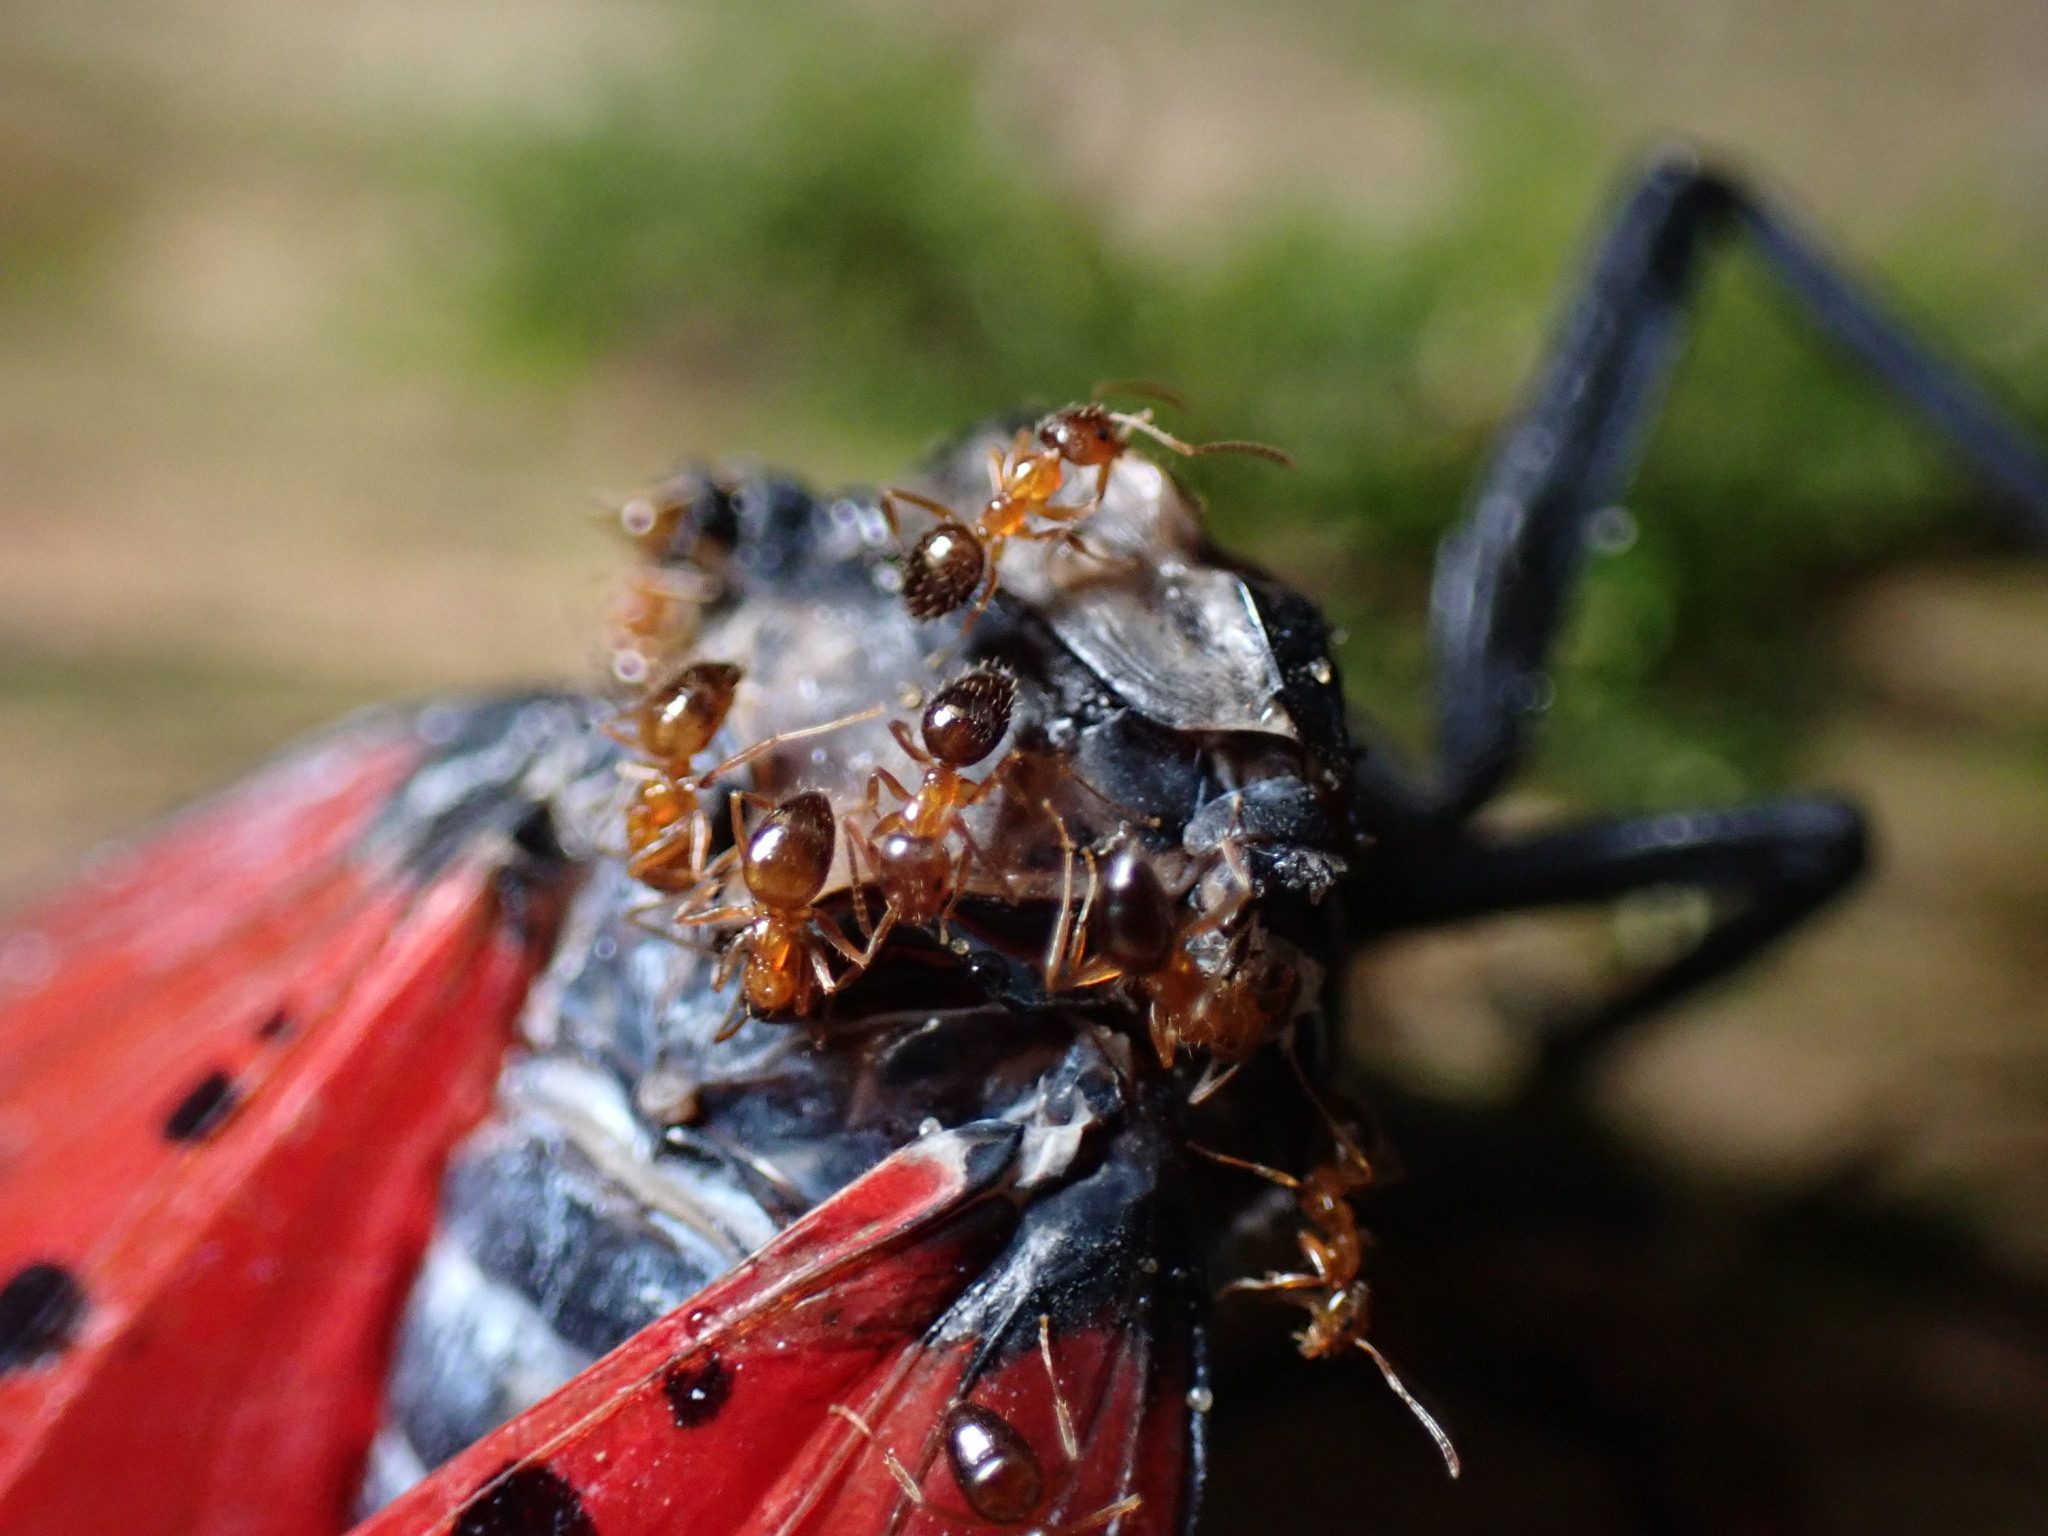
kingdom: Animalia
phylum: Arthropoda
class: Insecta
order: Hymenoptera
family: Formicidae
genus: Paratrechina
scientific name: Paratrechina flavipes
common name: Eastern asian formicine ant
